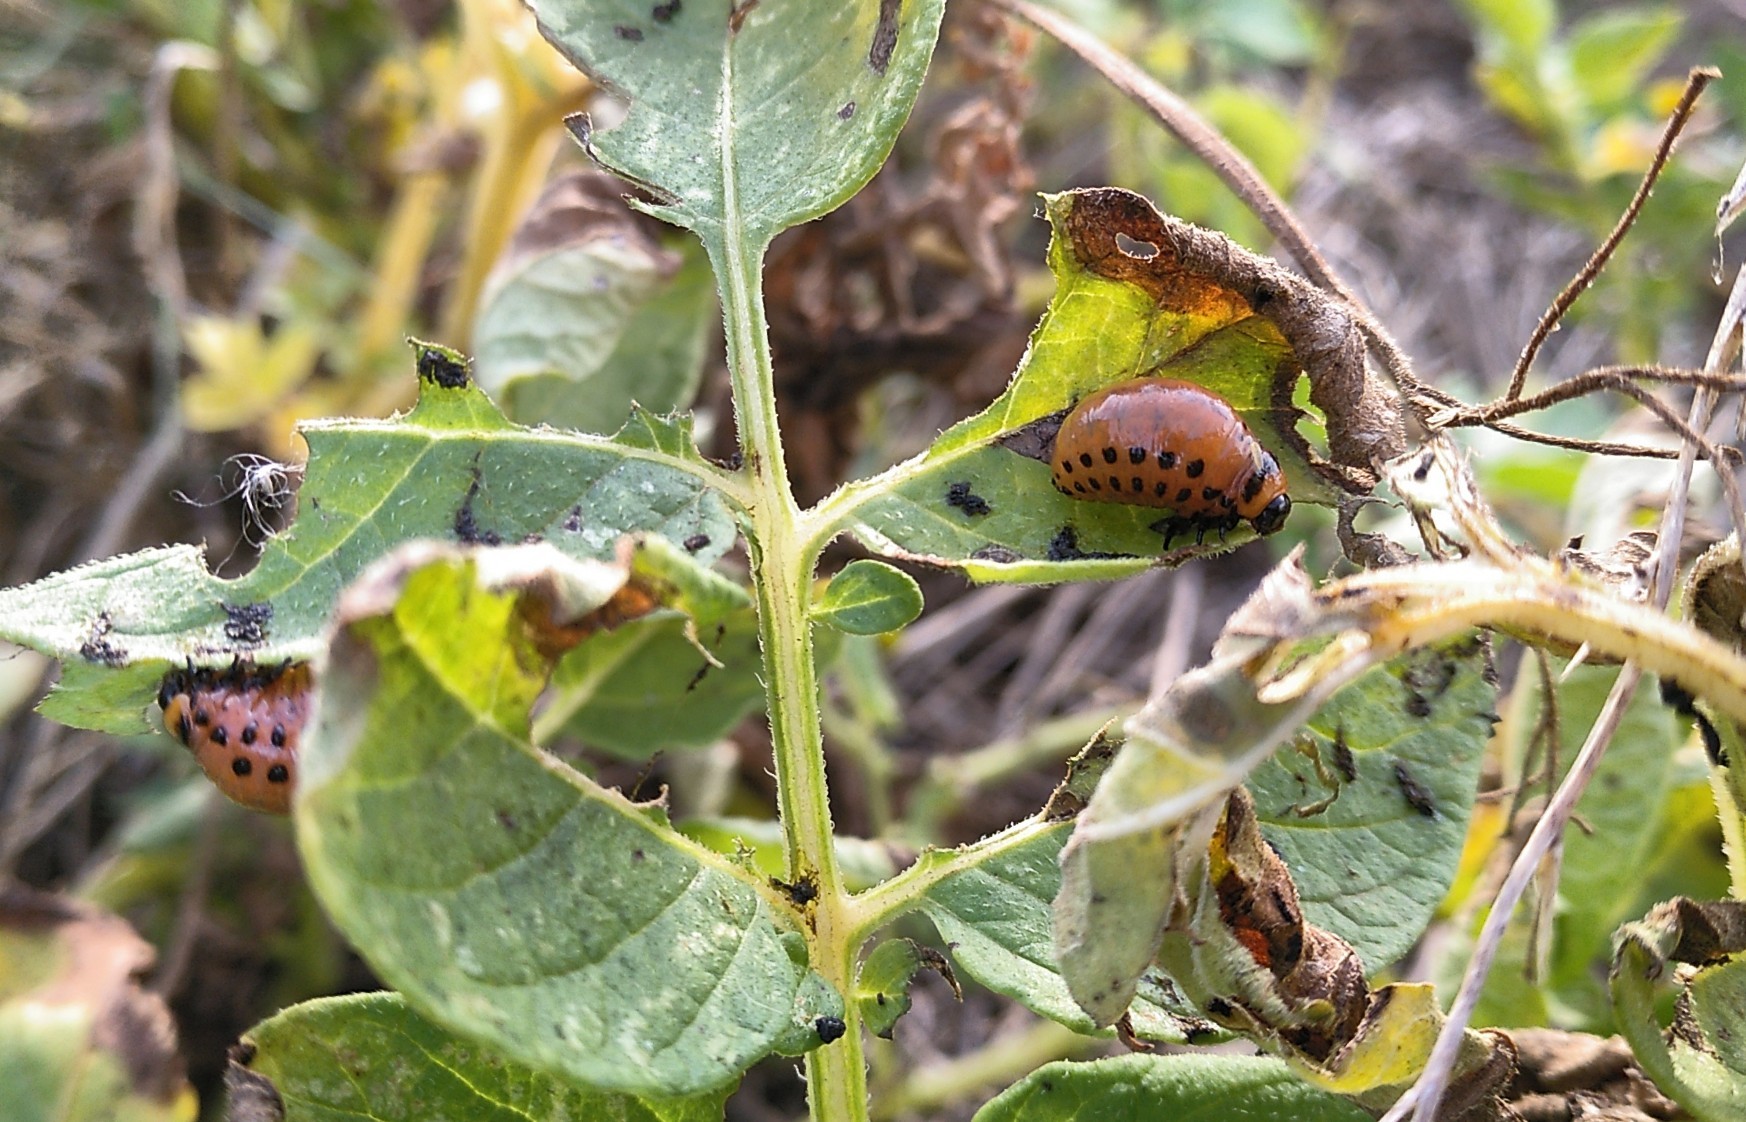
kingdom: Animalia
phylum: Arthropoda
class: Insecta
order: Coleoptera
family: Chrysomelidae
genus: Leptinotarsa
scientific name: Leptinotarsa decemlineata
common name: Colorado potato beetle
